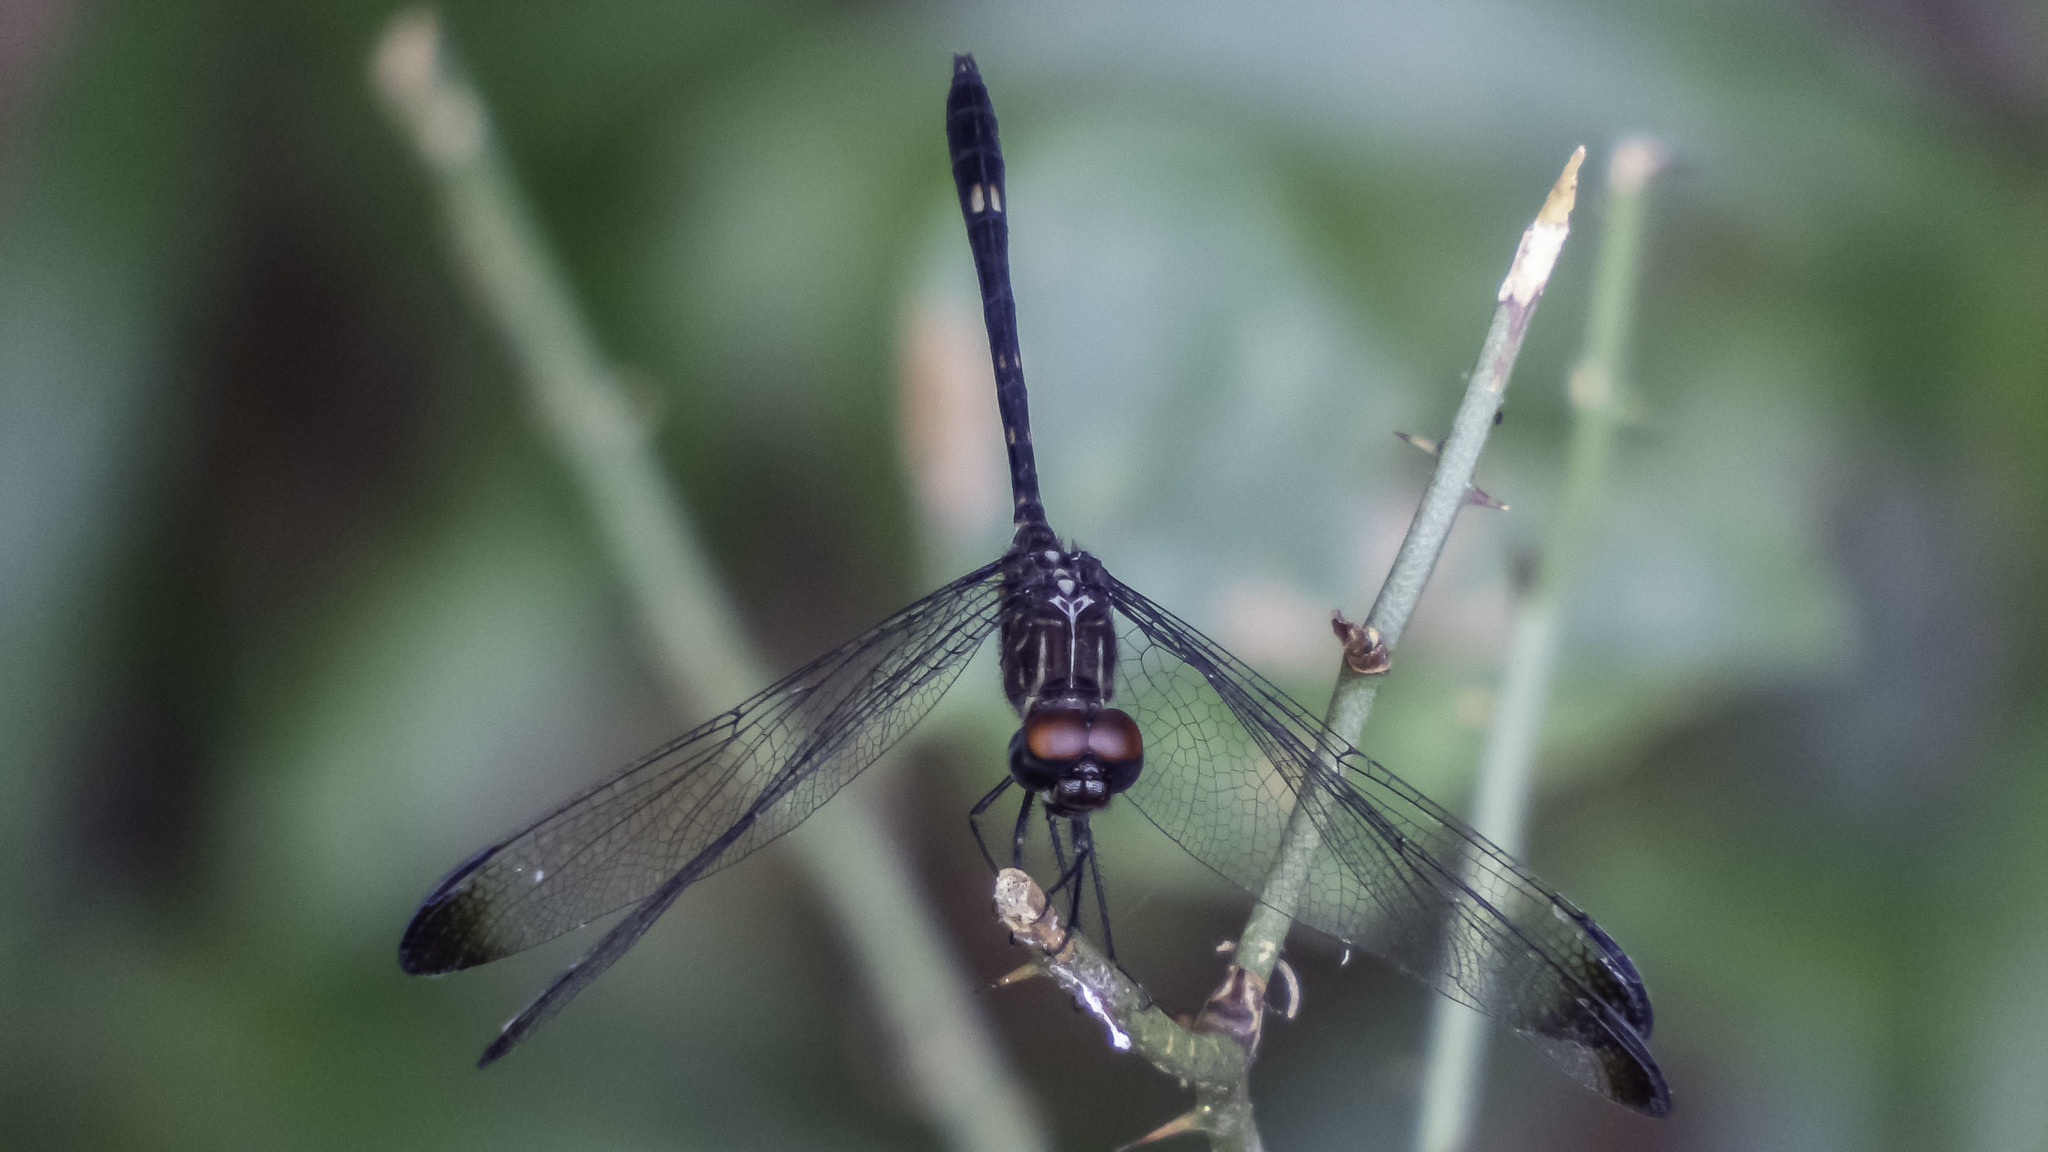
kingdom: Animalia
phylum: Arthropoda
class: Insecta
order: Odonata
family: Libellulidae
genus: Dythemis
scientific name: Dythemis velox
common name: Swift setwing
